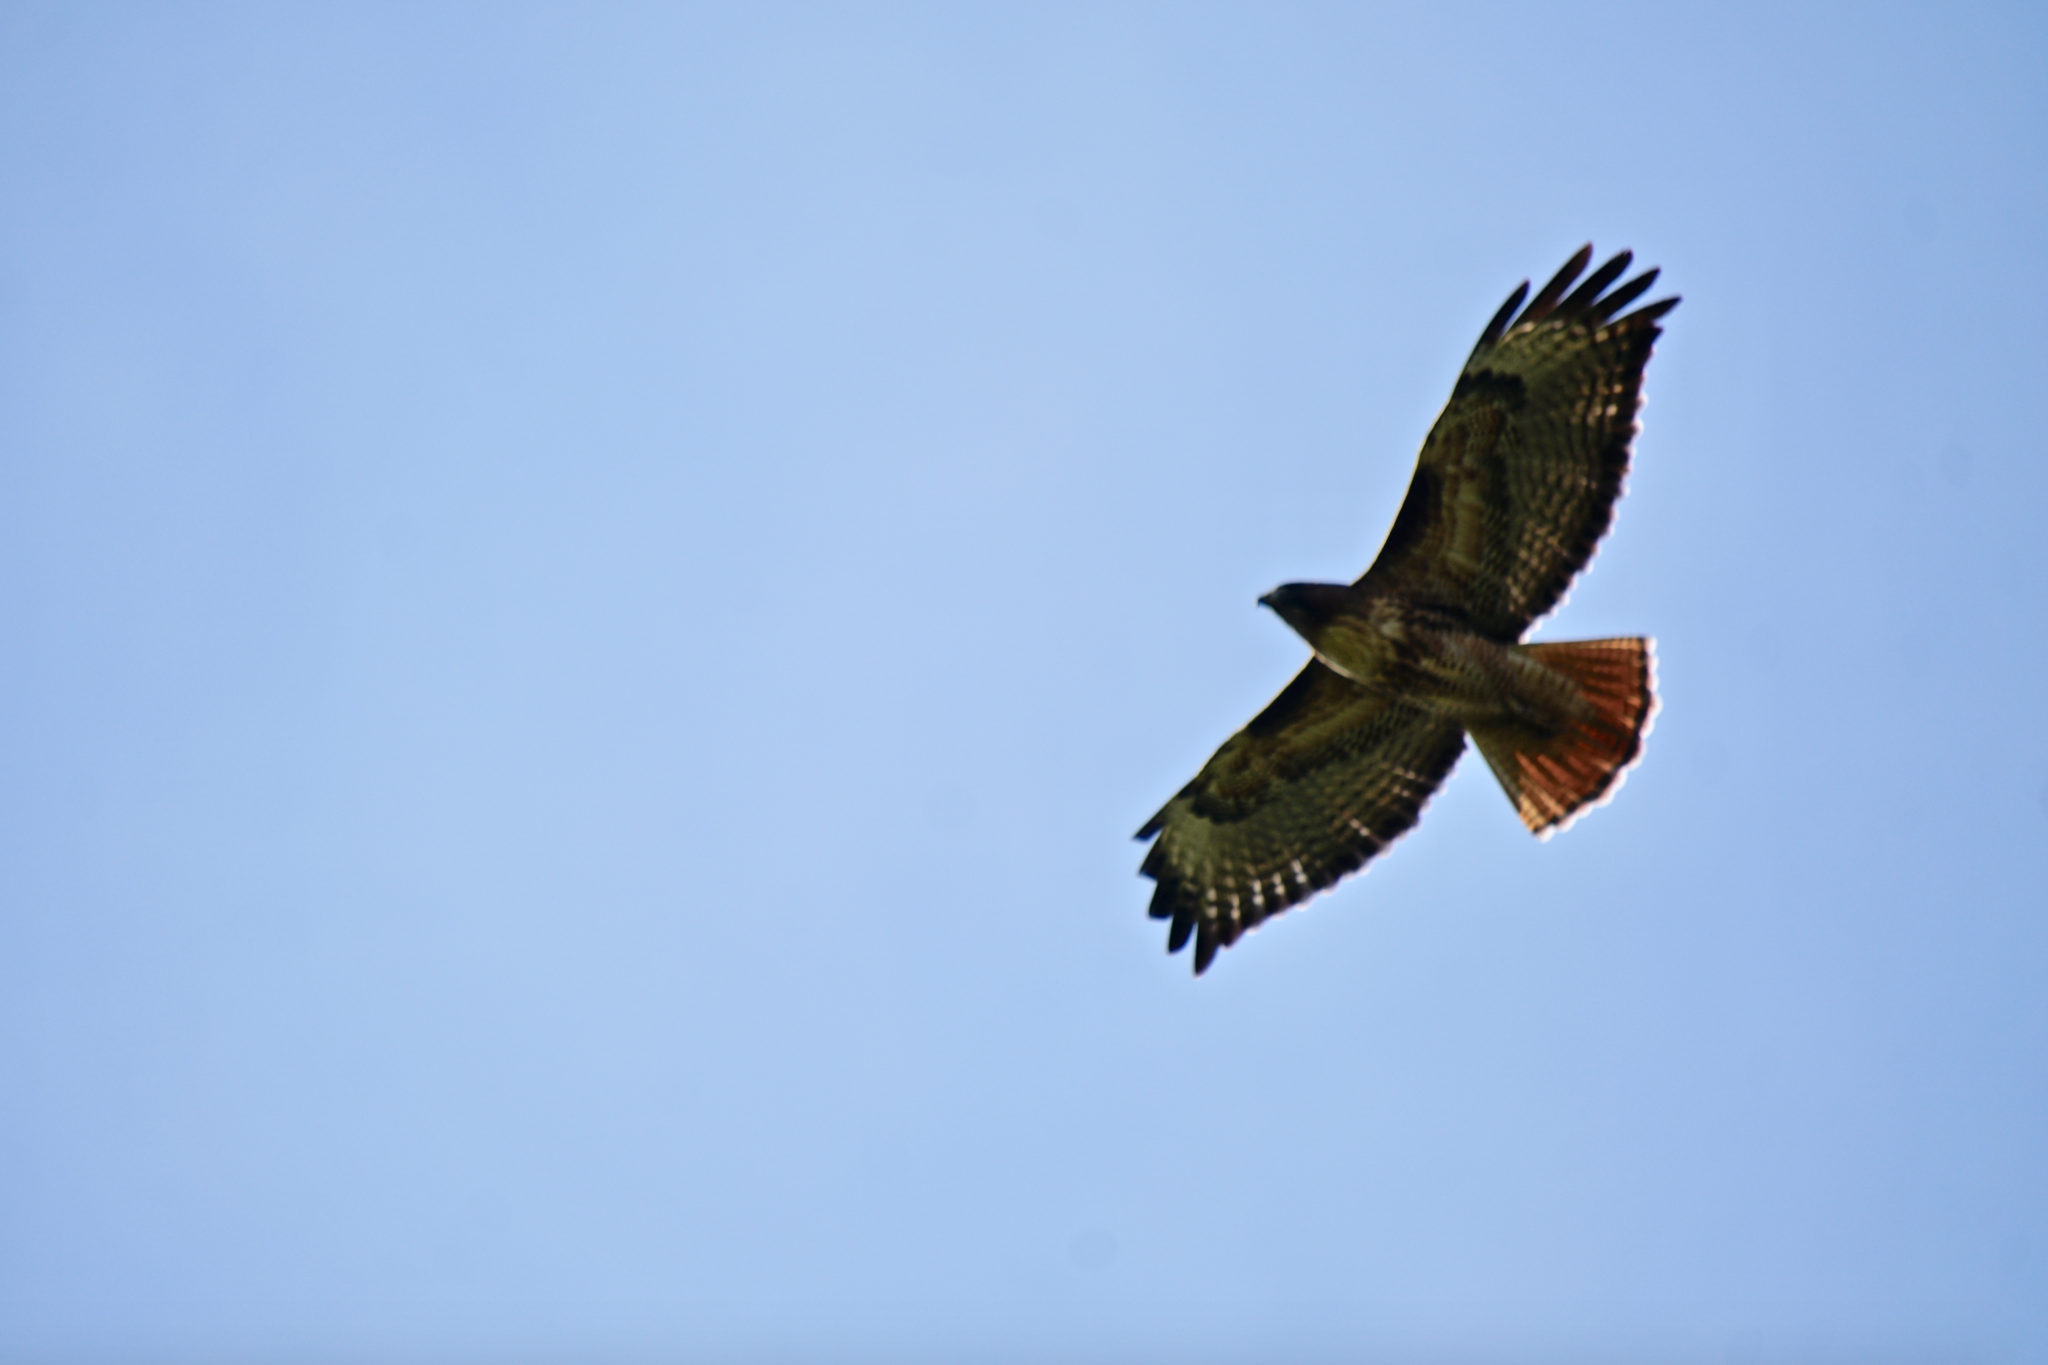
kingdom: Animalia
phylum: Chordata
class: Aves
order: Accipitriformes
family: Accipitridae
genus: Buteo
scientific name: Buteo jamaicensis
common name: Red-tailed hawk
